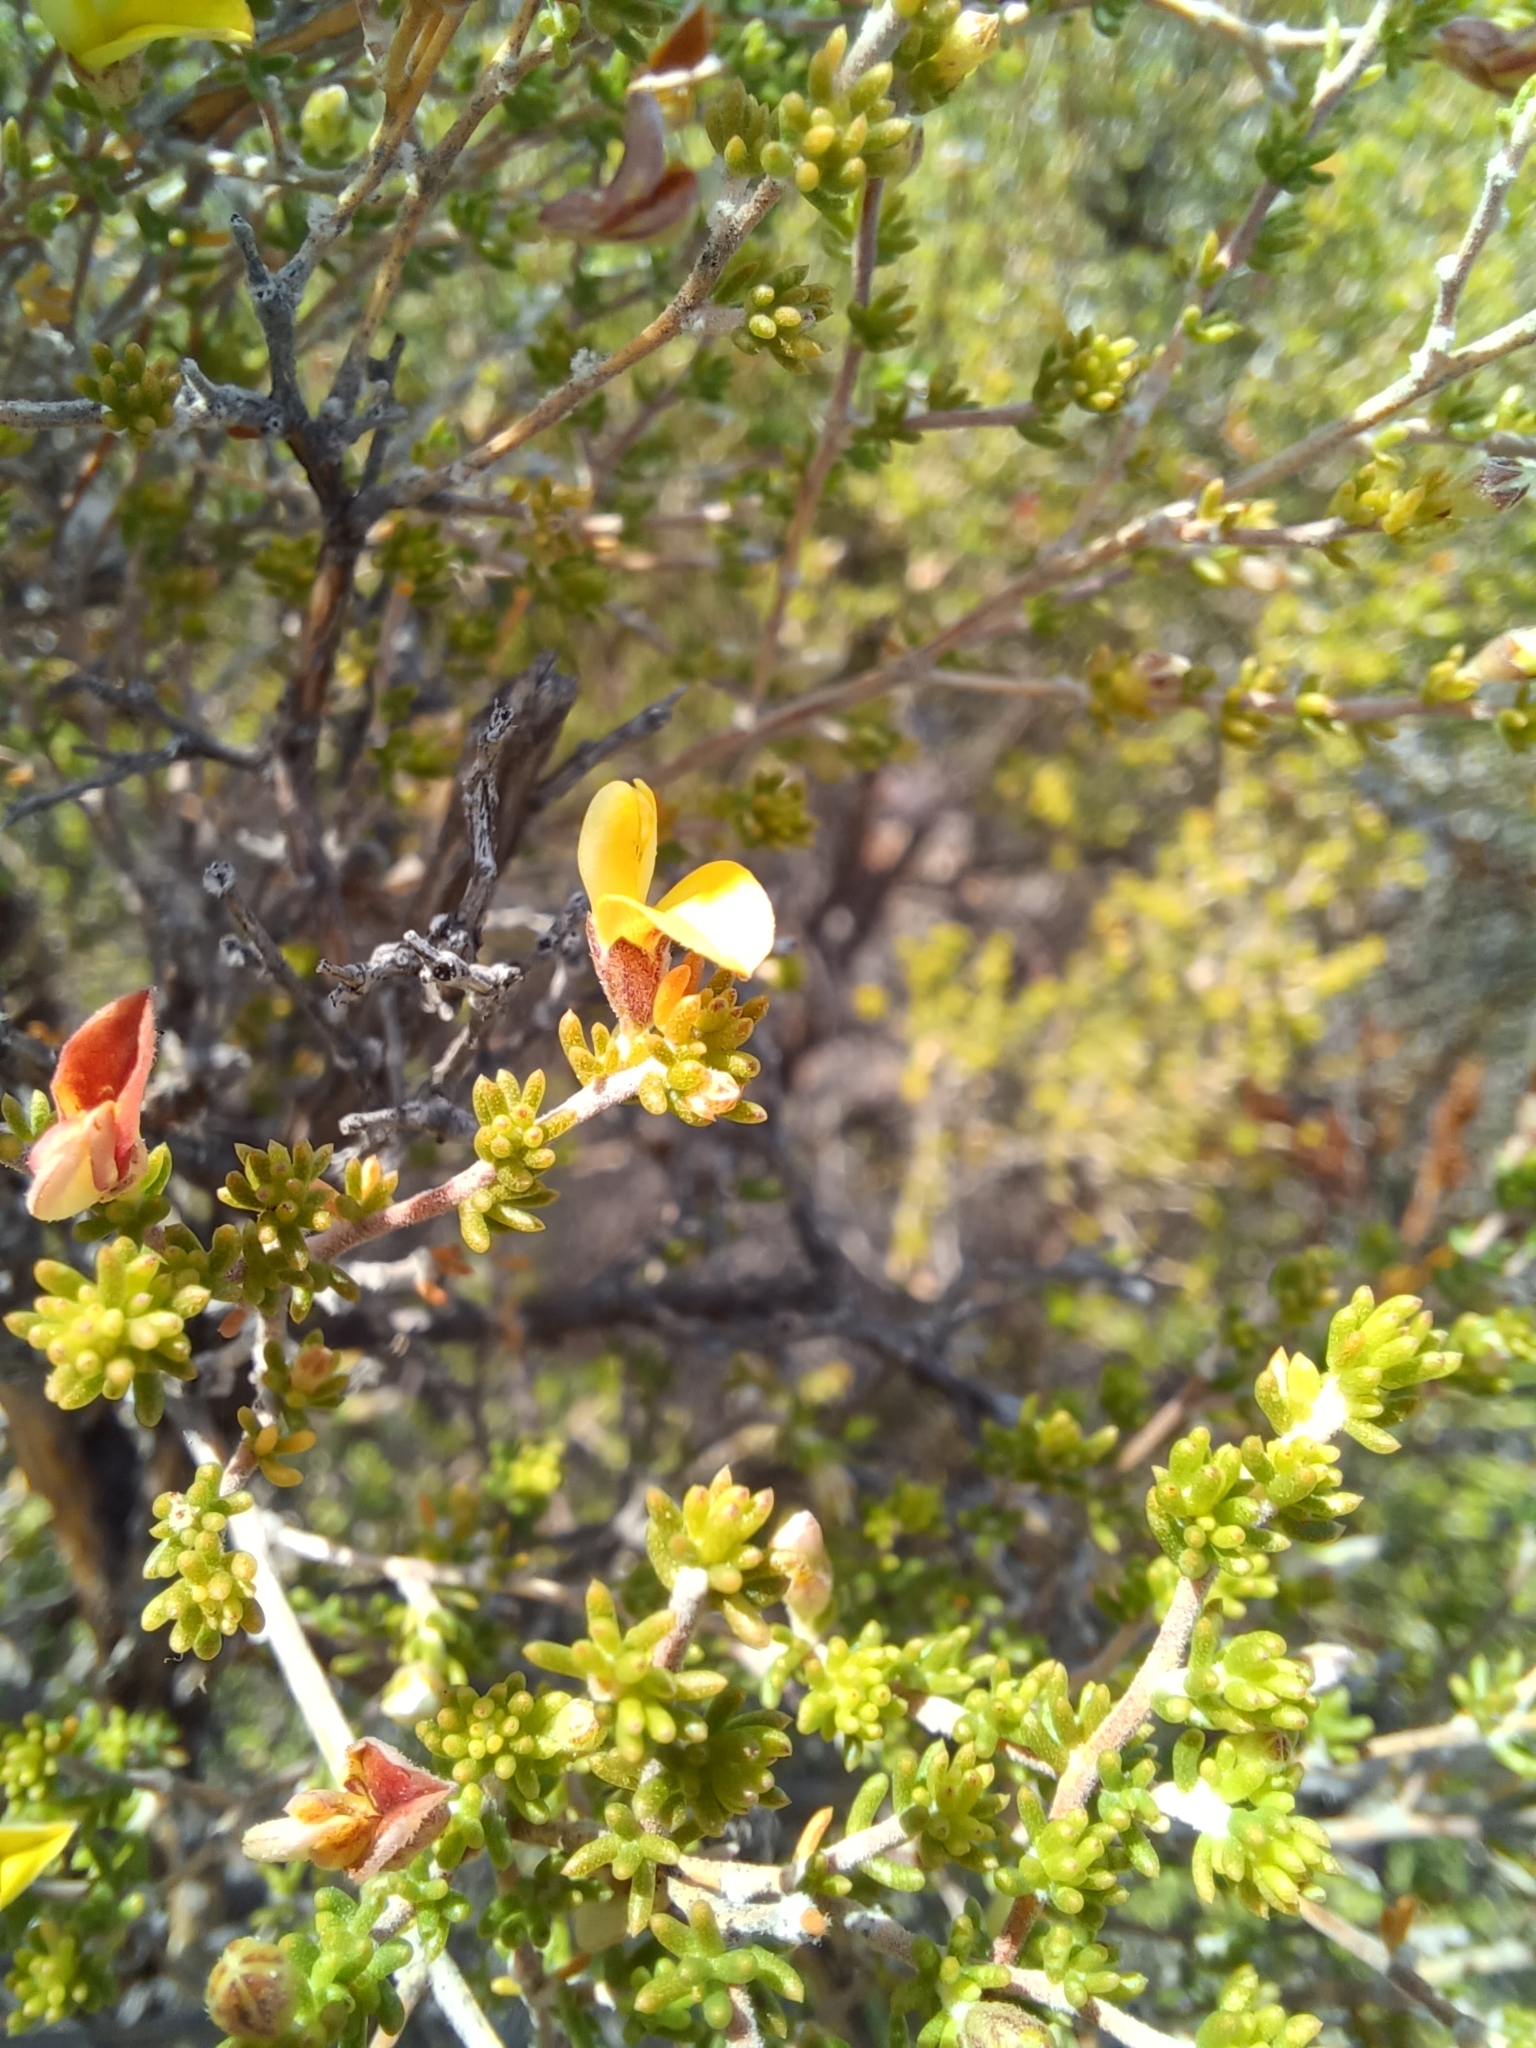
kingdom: Plantae
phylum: Tracheophyta
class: Magnoliopsida
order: Fabales
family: Fabaceae
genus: Aspalathus
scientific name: Aspalathus pilantha
